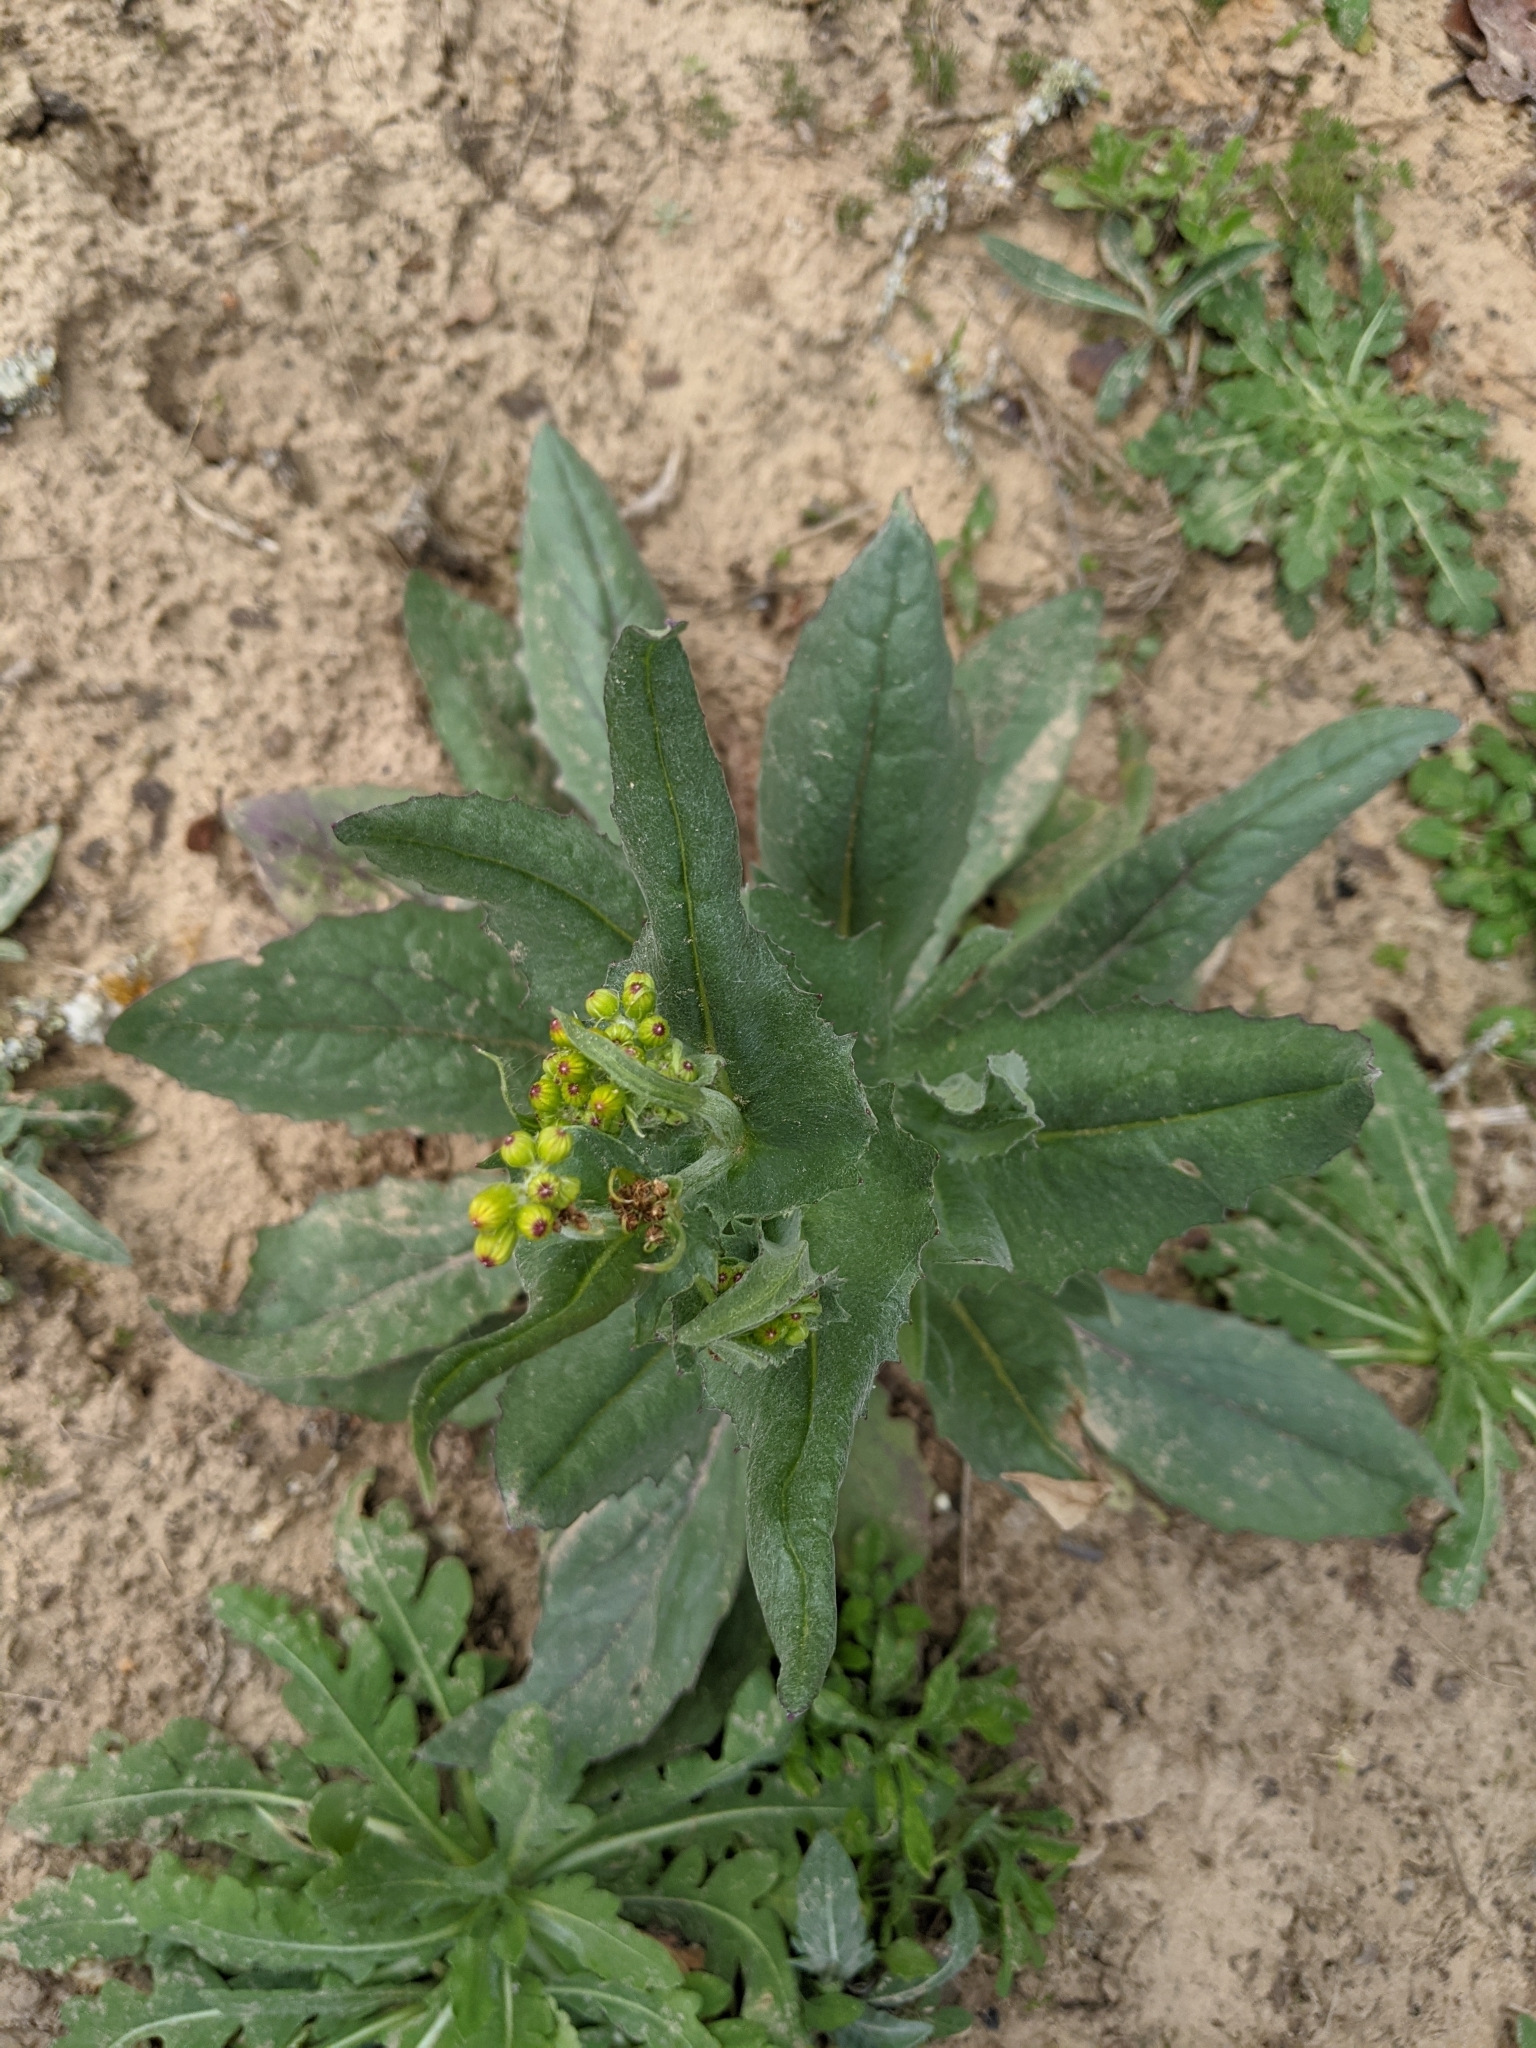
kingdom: Plantae
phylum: Tracheophyta
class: Magnoliopsida
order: Asterales
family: Asteraceae
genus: Senecio
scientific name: Senecio ampullaceus
